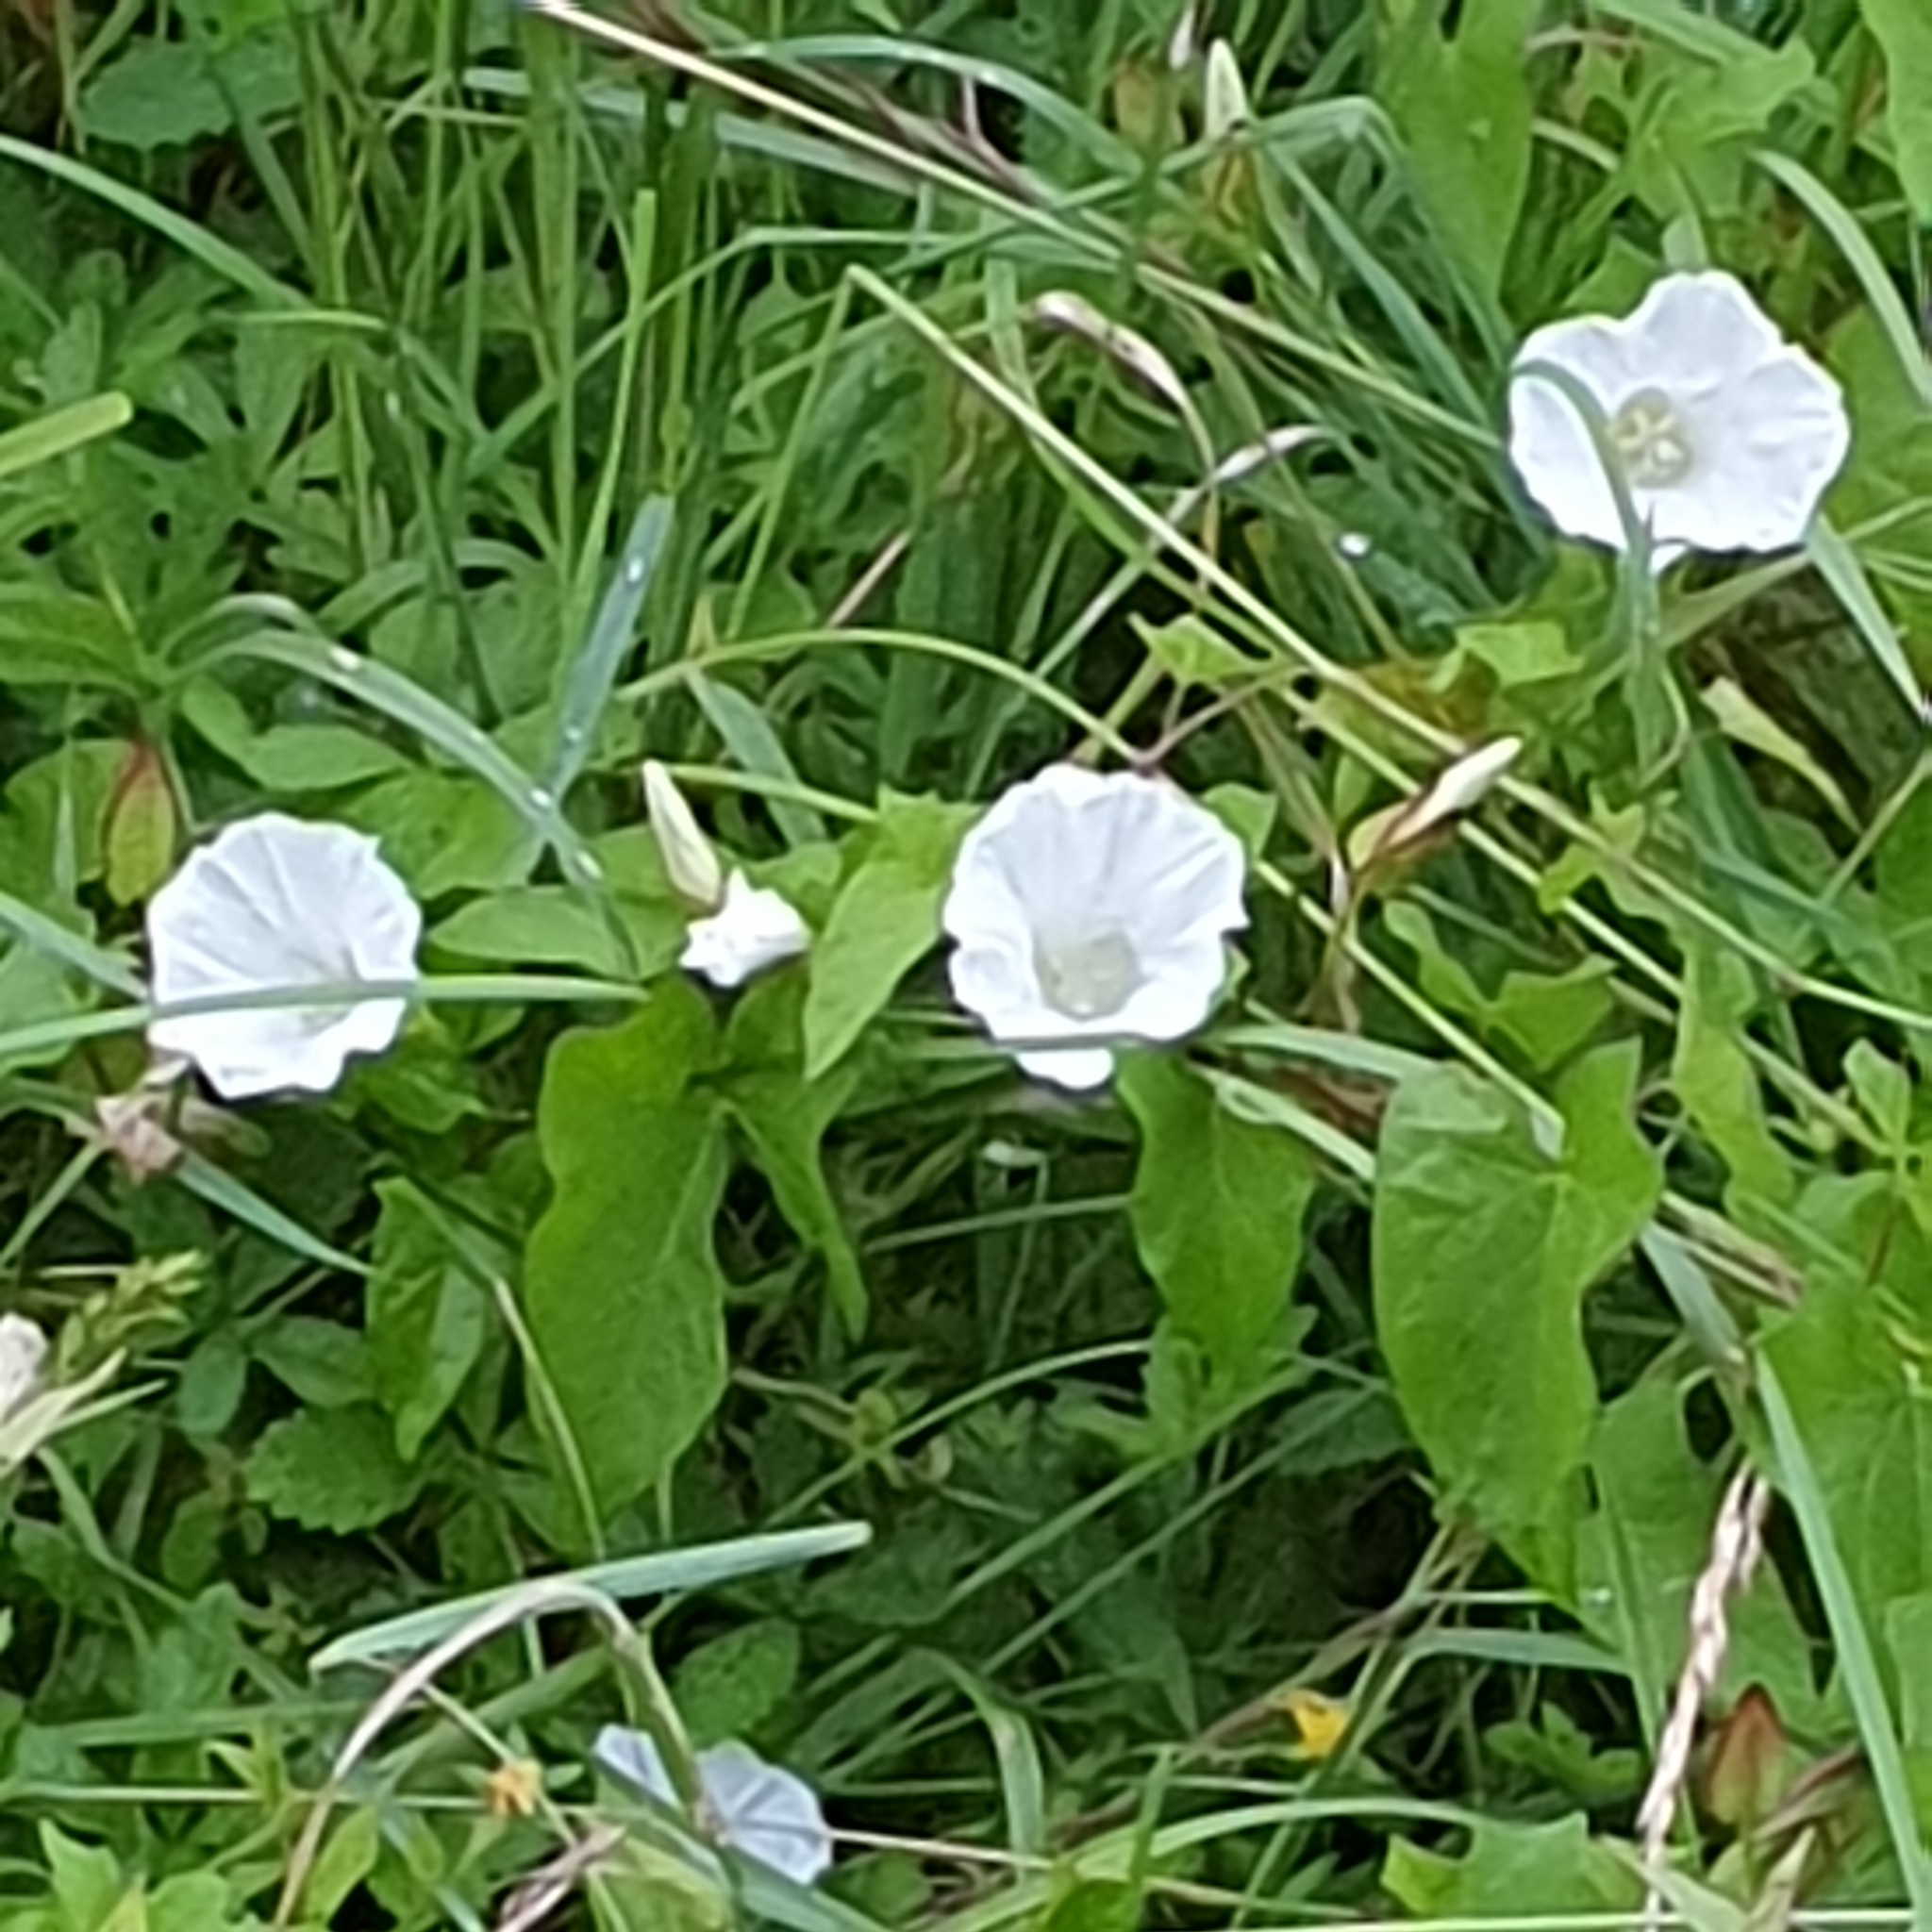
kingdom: Plantae
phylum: Tracheophyta
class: Magnoliopsida
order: Solanales
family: Convolvulaceae
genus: Calystegia
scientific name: Calystegia sepium
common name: Hedge bindweed
